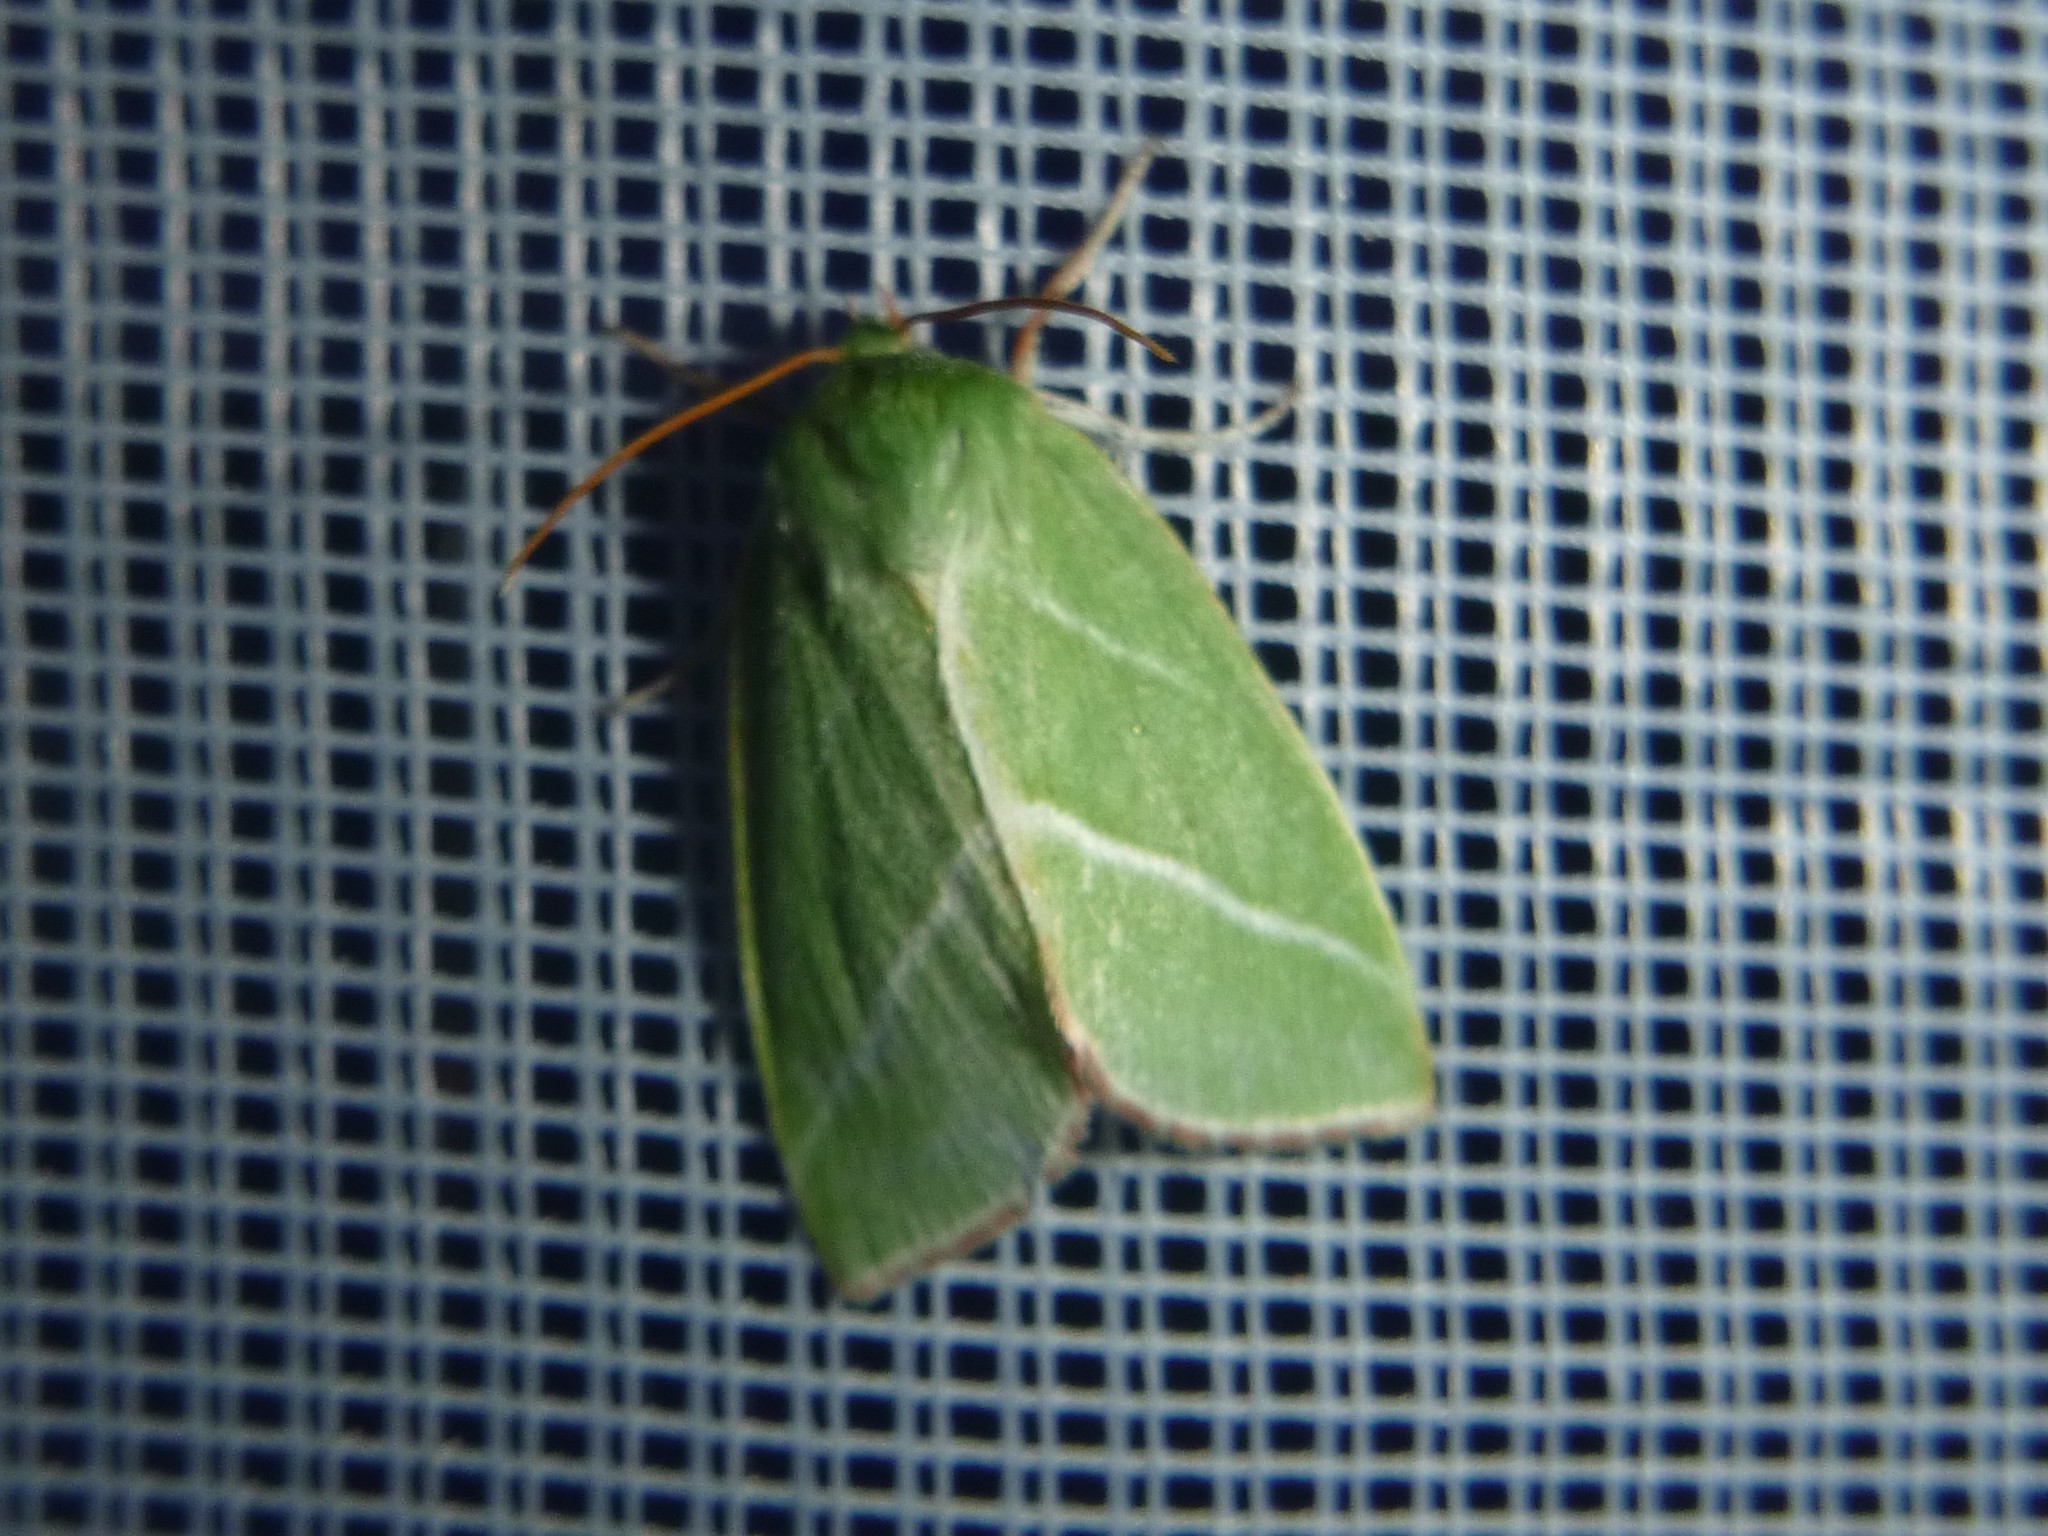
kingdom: Animalia
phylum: Arthropoda
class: Insecta
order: Lepidoptera
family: Nolidae
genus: Pseudoips
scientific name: Pseudoips prasinana
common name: Green silver-lines
